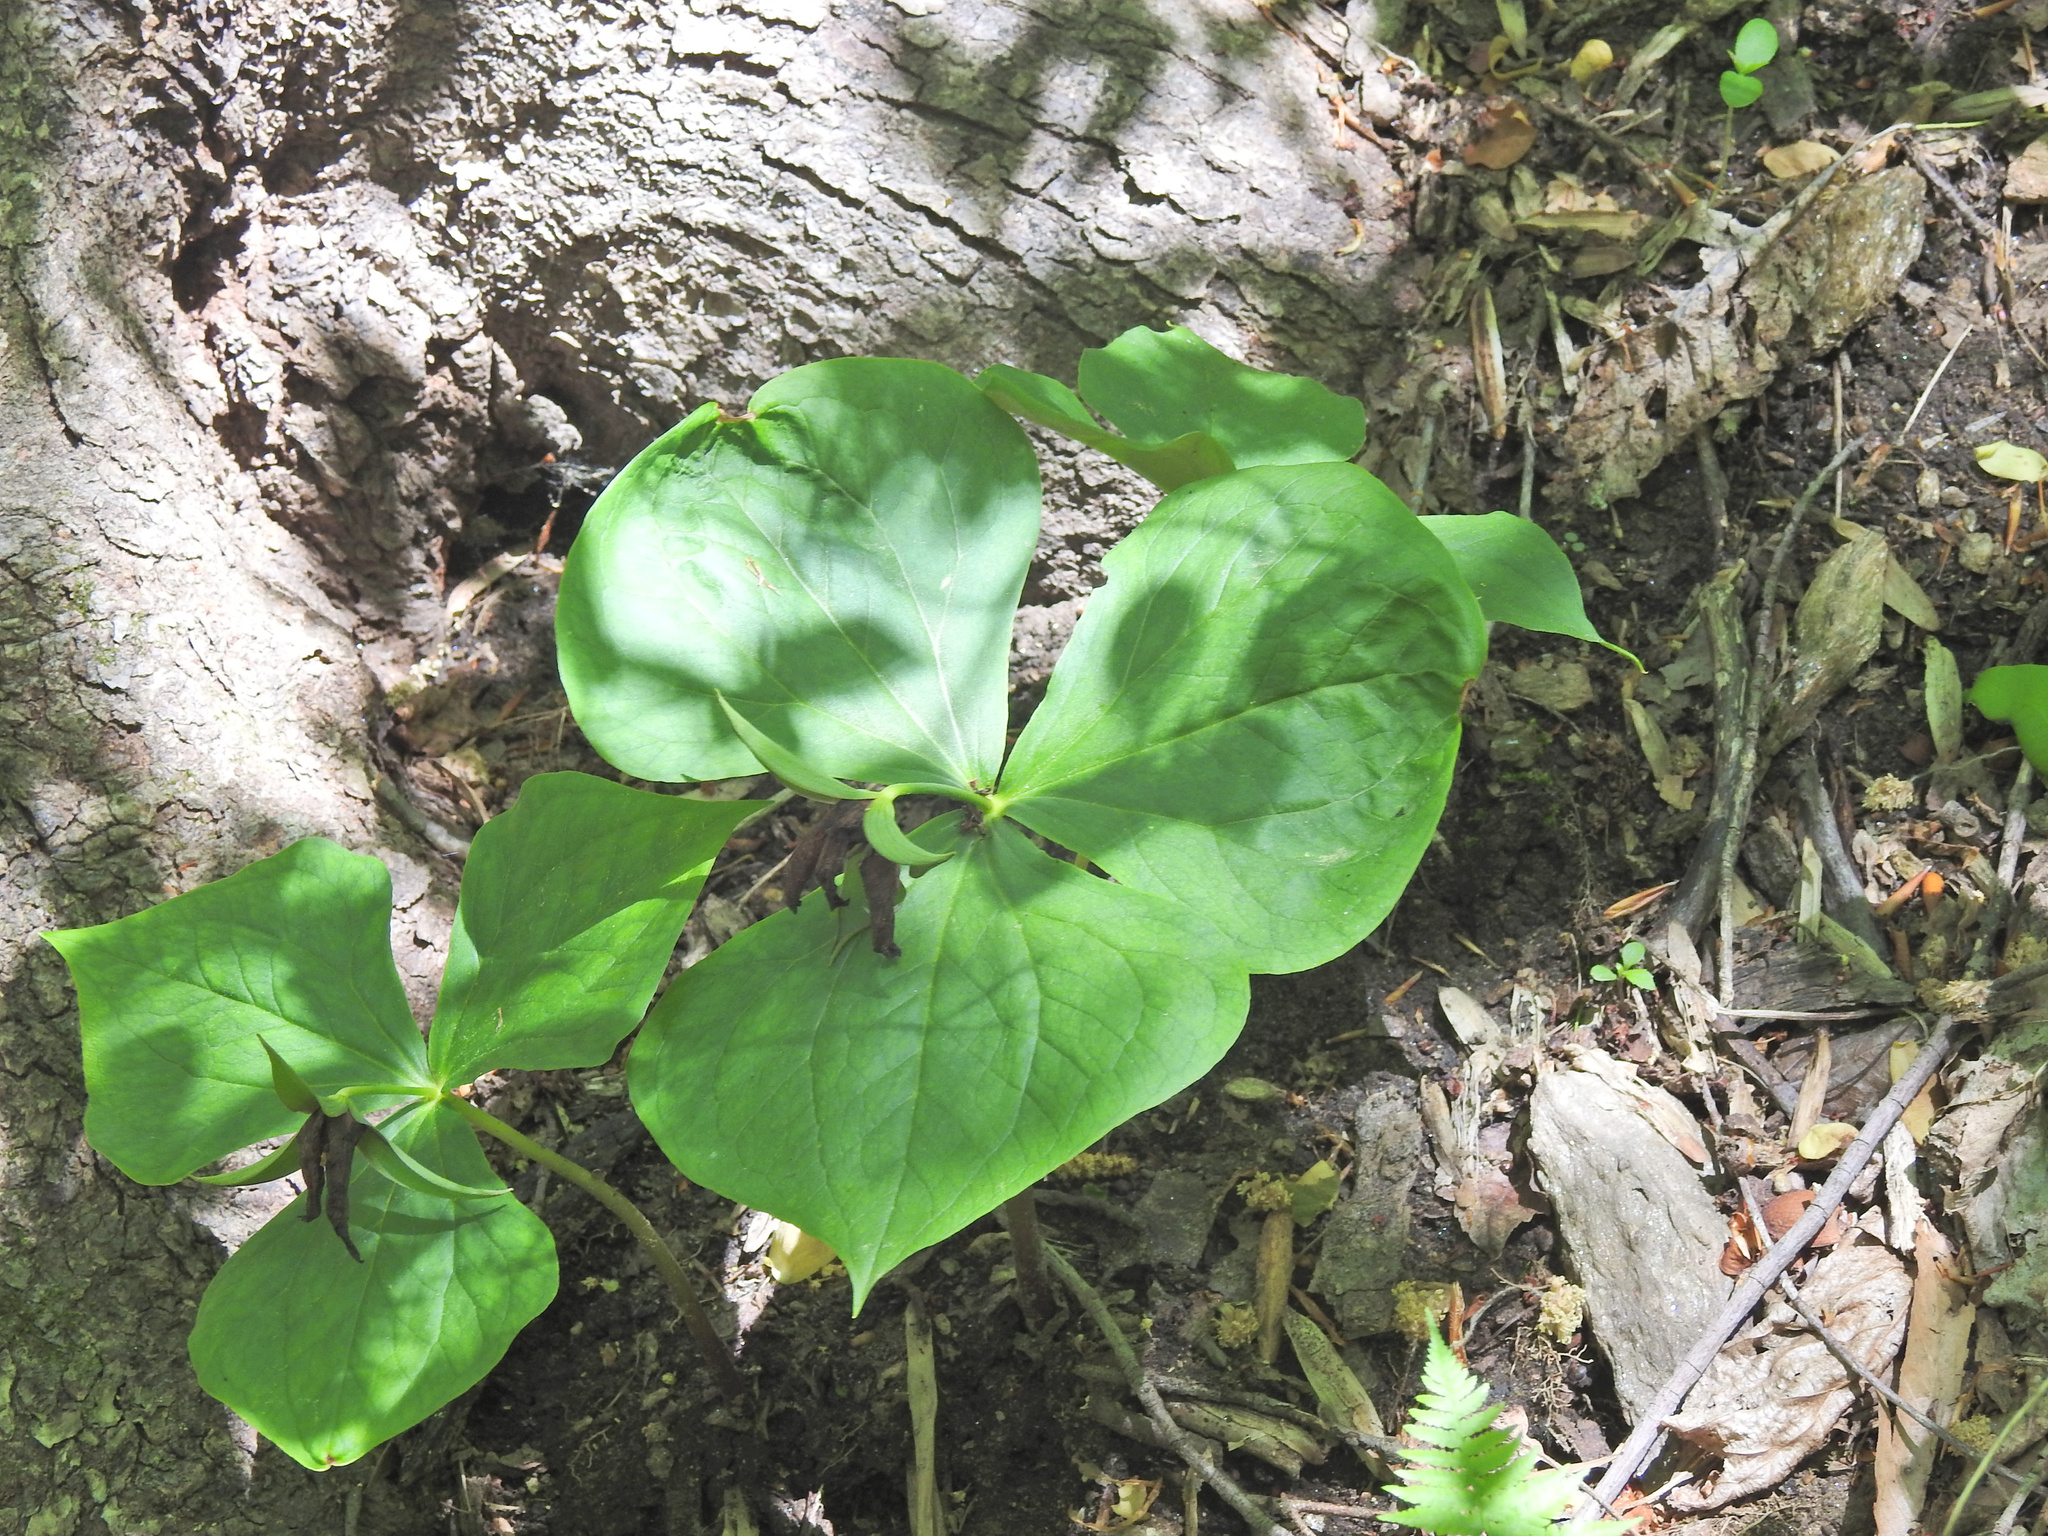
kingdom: Plantae
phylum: Tracheophyta
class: Liliopsida
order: Liliales
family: Melanthiaceae
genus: Trillium
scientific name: Trillium erectum
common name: Purple trillium
